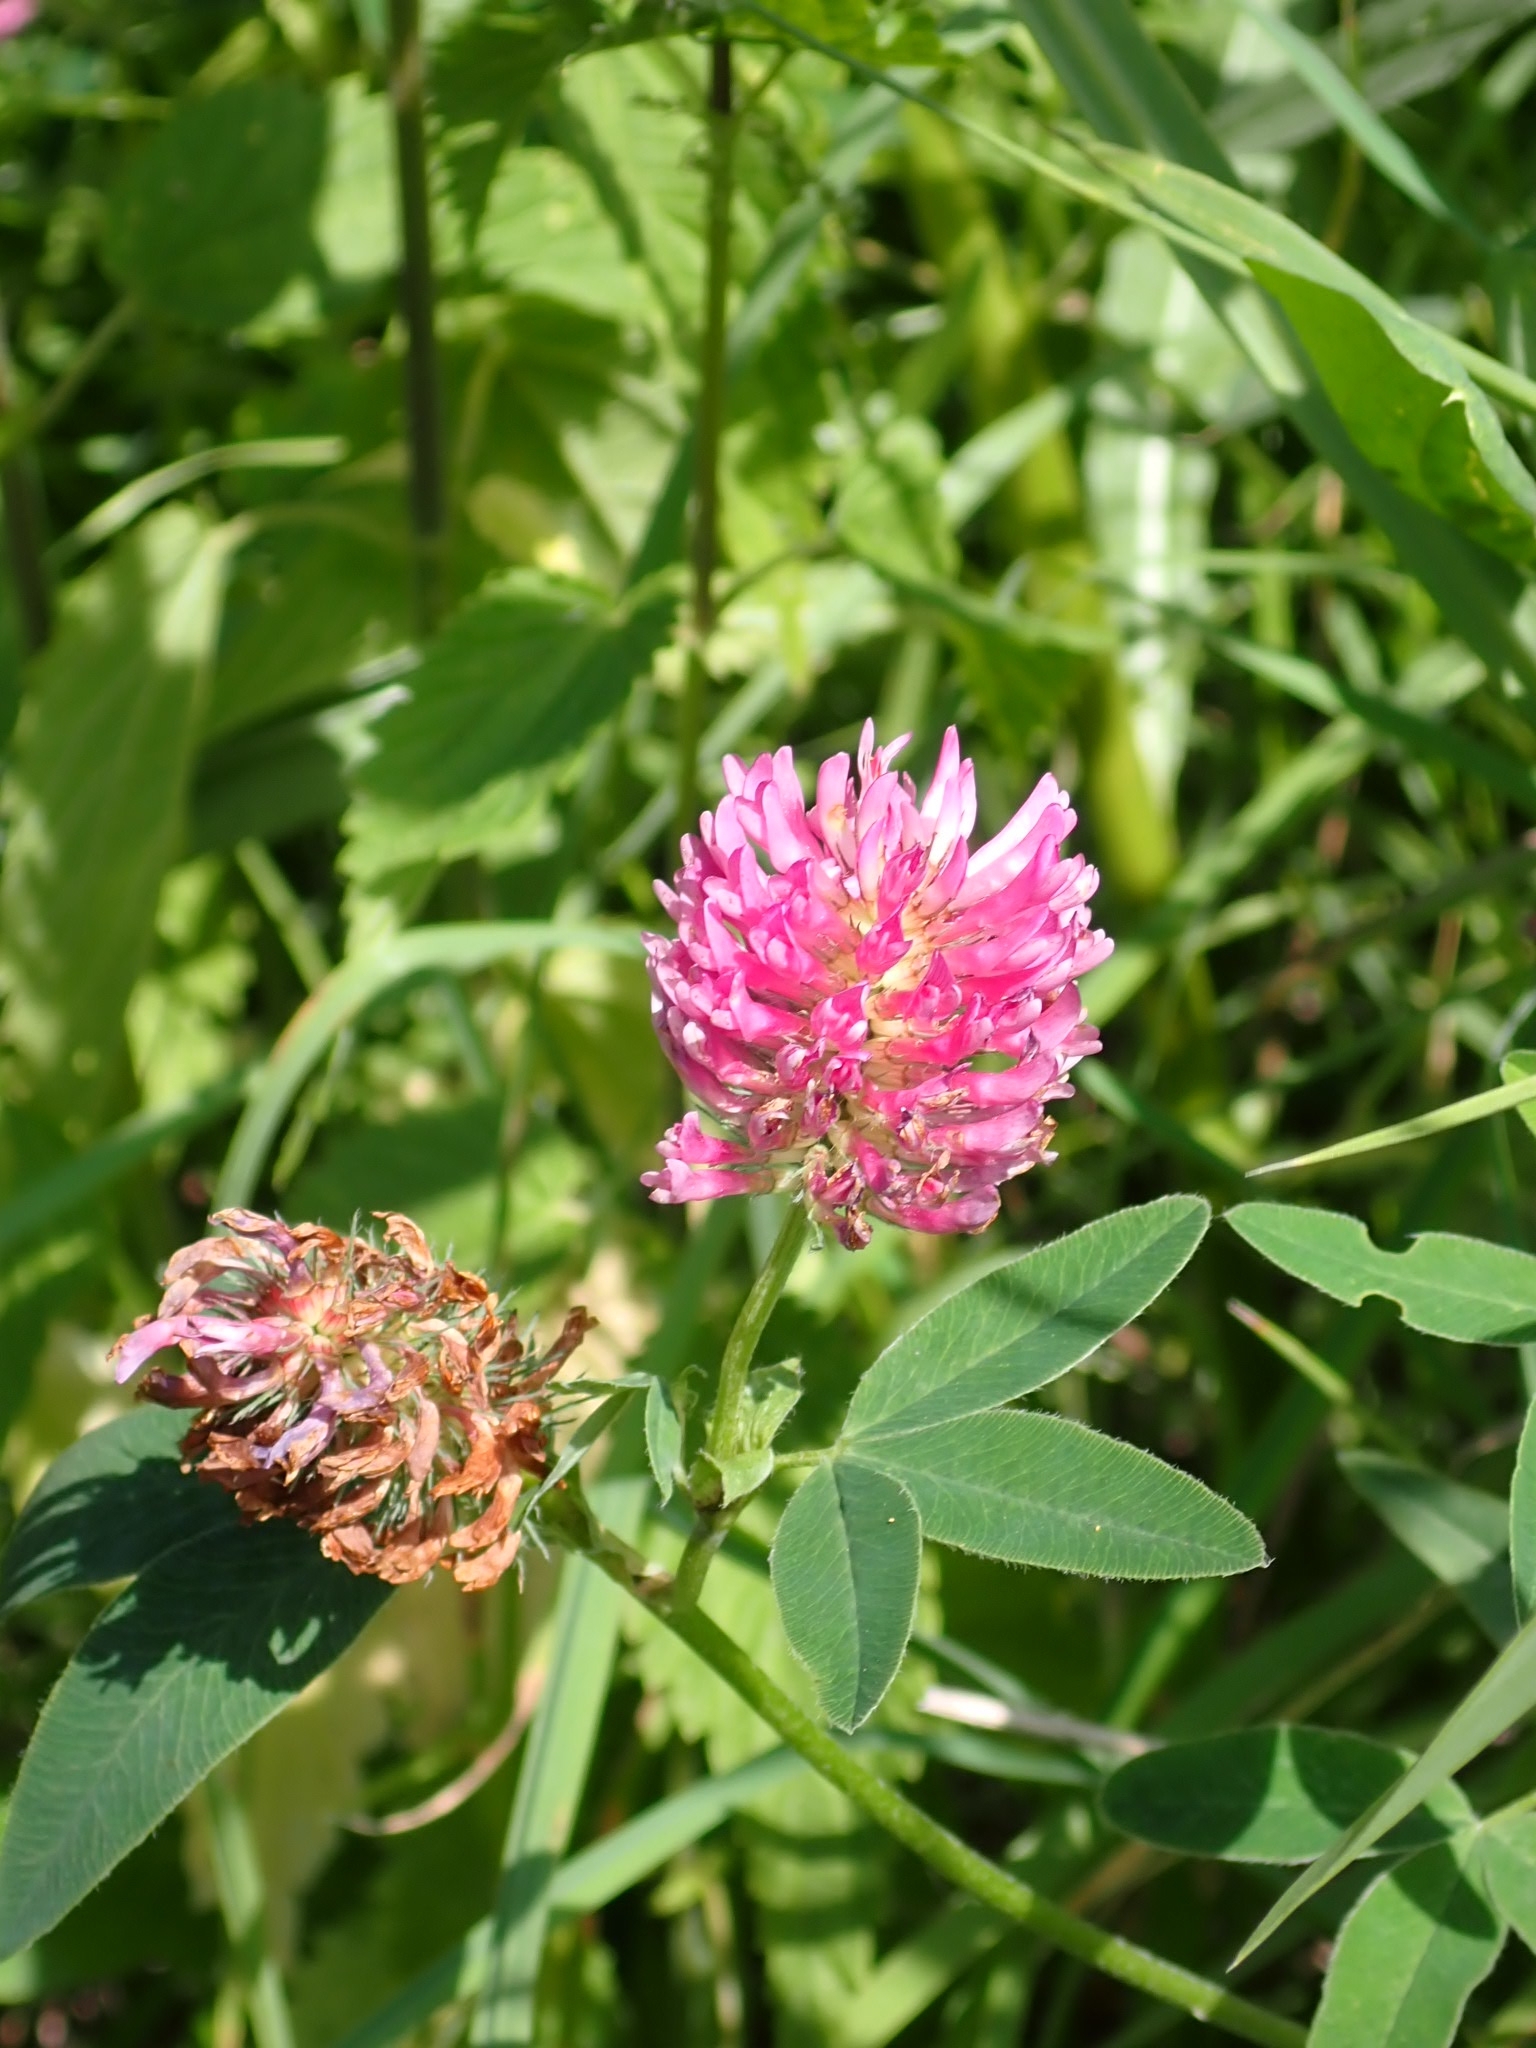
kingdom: Plantae
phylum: Tracheophyta
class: Magnoliopsida
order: Fabales
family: Fabaceae
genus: Trifolium
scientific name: Trifolium medium
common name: Zigzag clover
